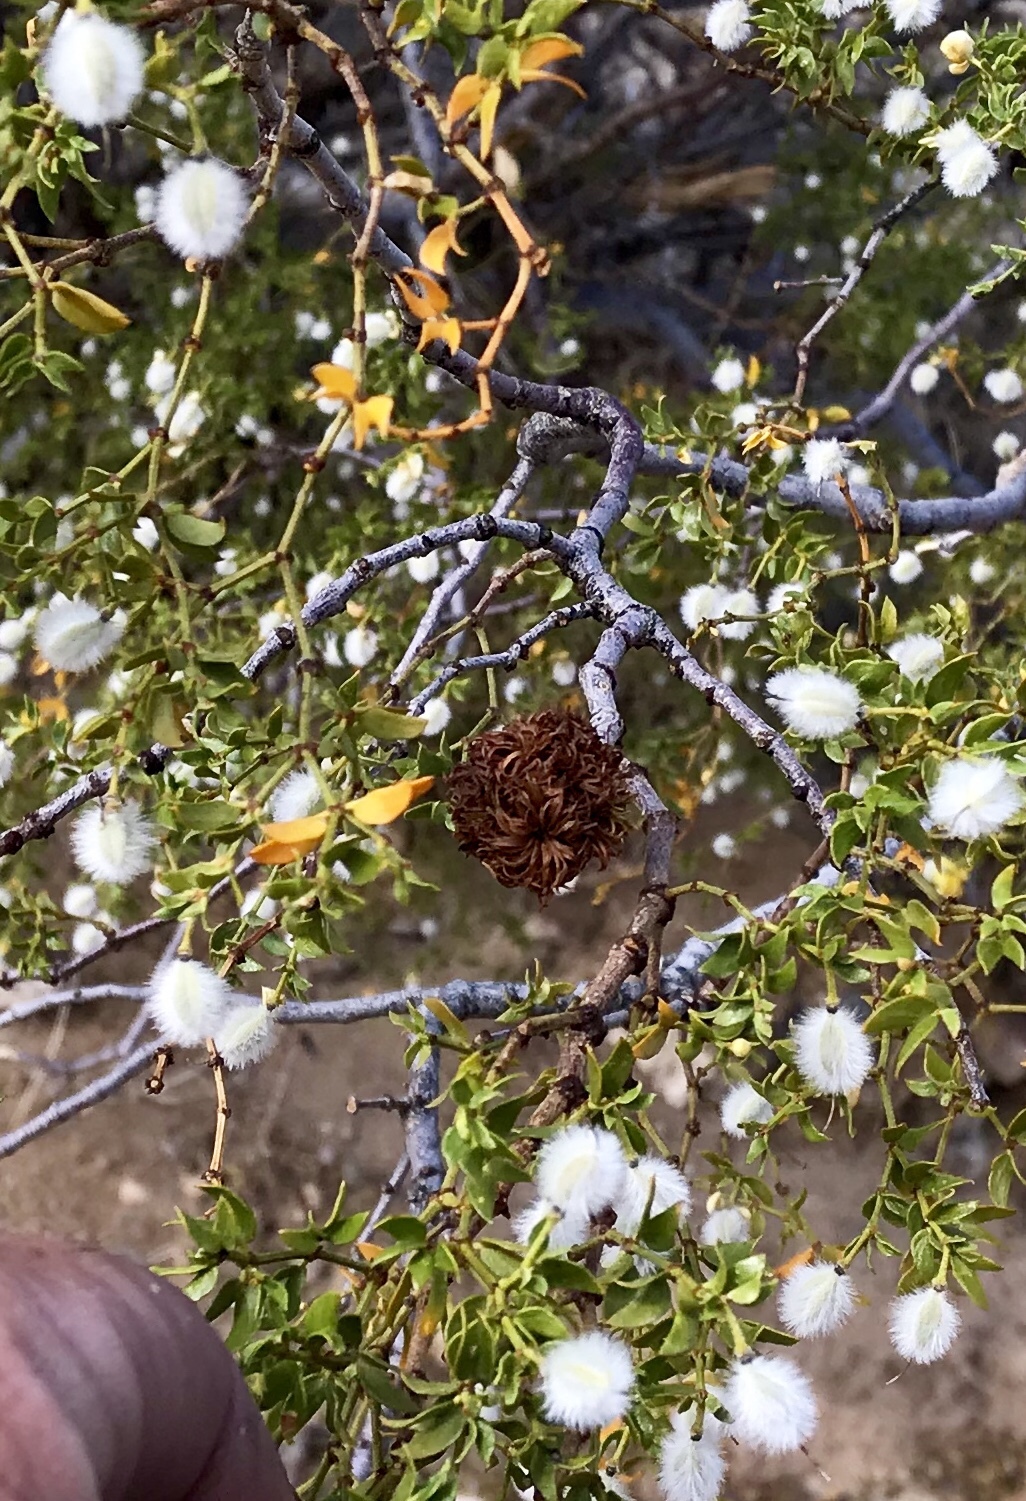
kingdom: Animalia
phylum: Arthropoda
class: Insecta
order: Diptera
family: Cecidomyiidae
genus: Asphondylia
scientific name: Asphondylia auripila
